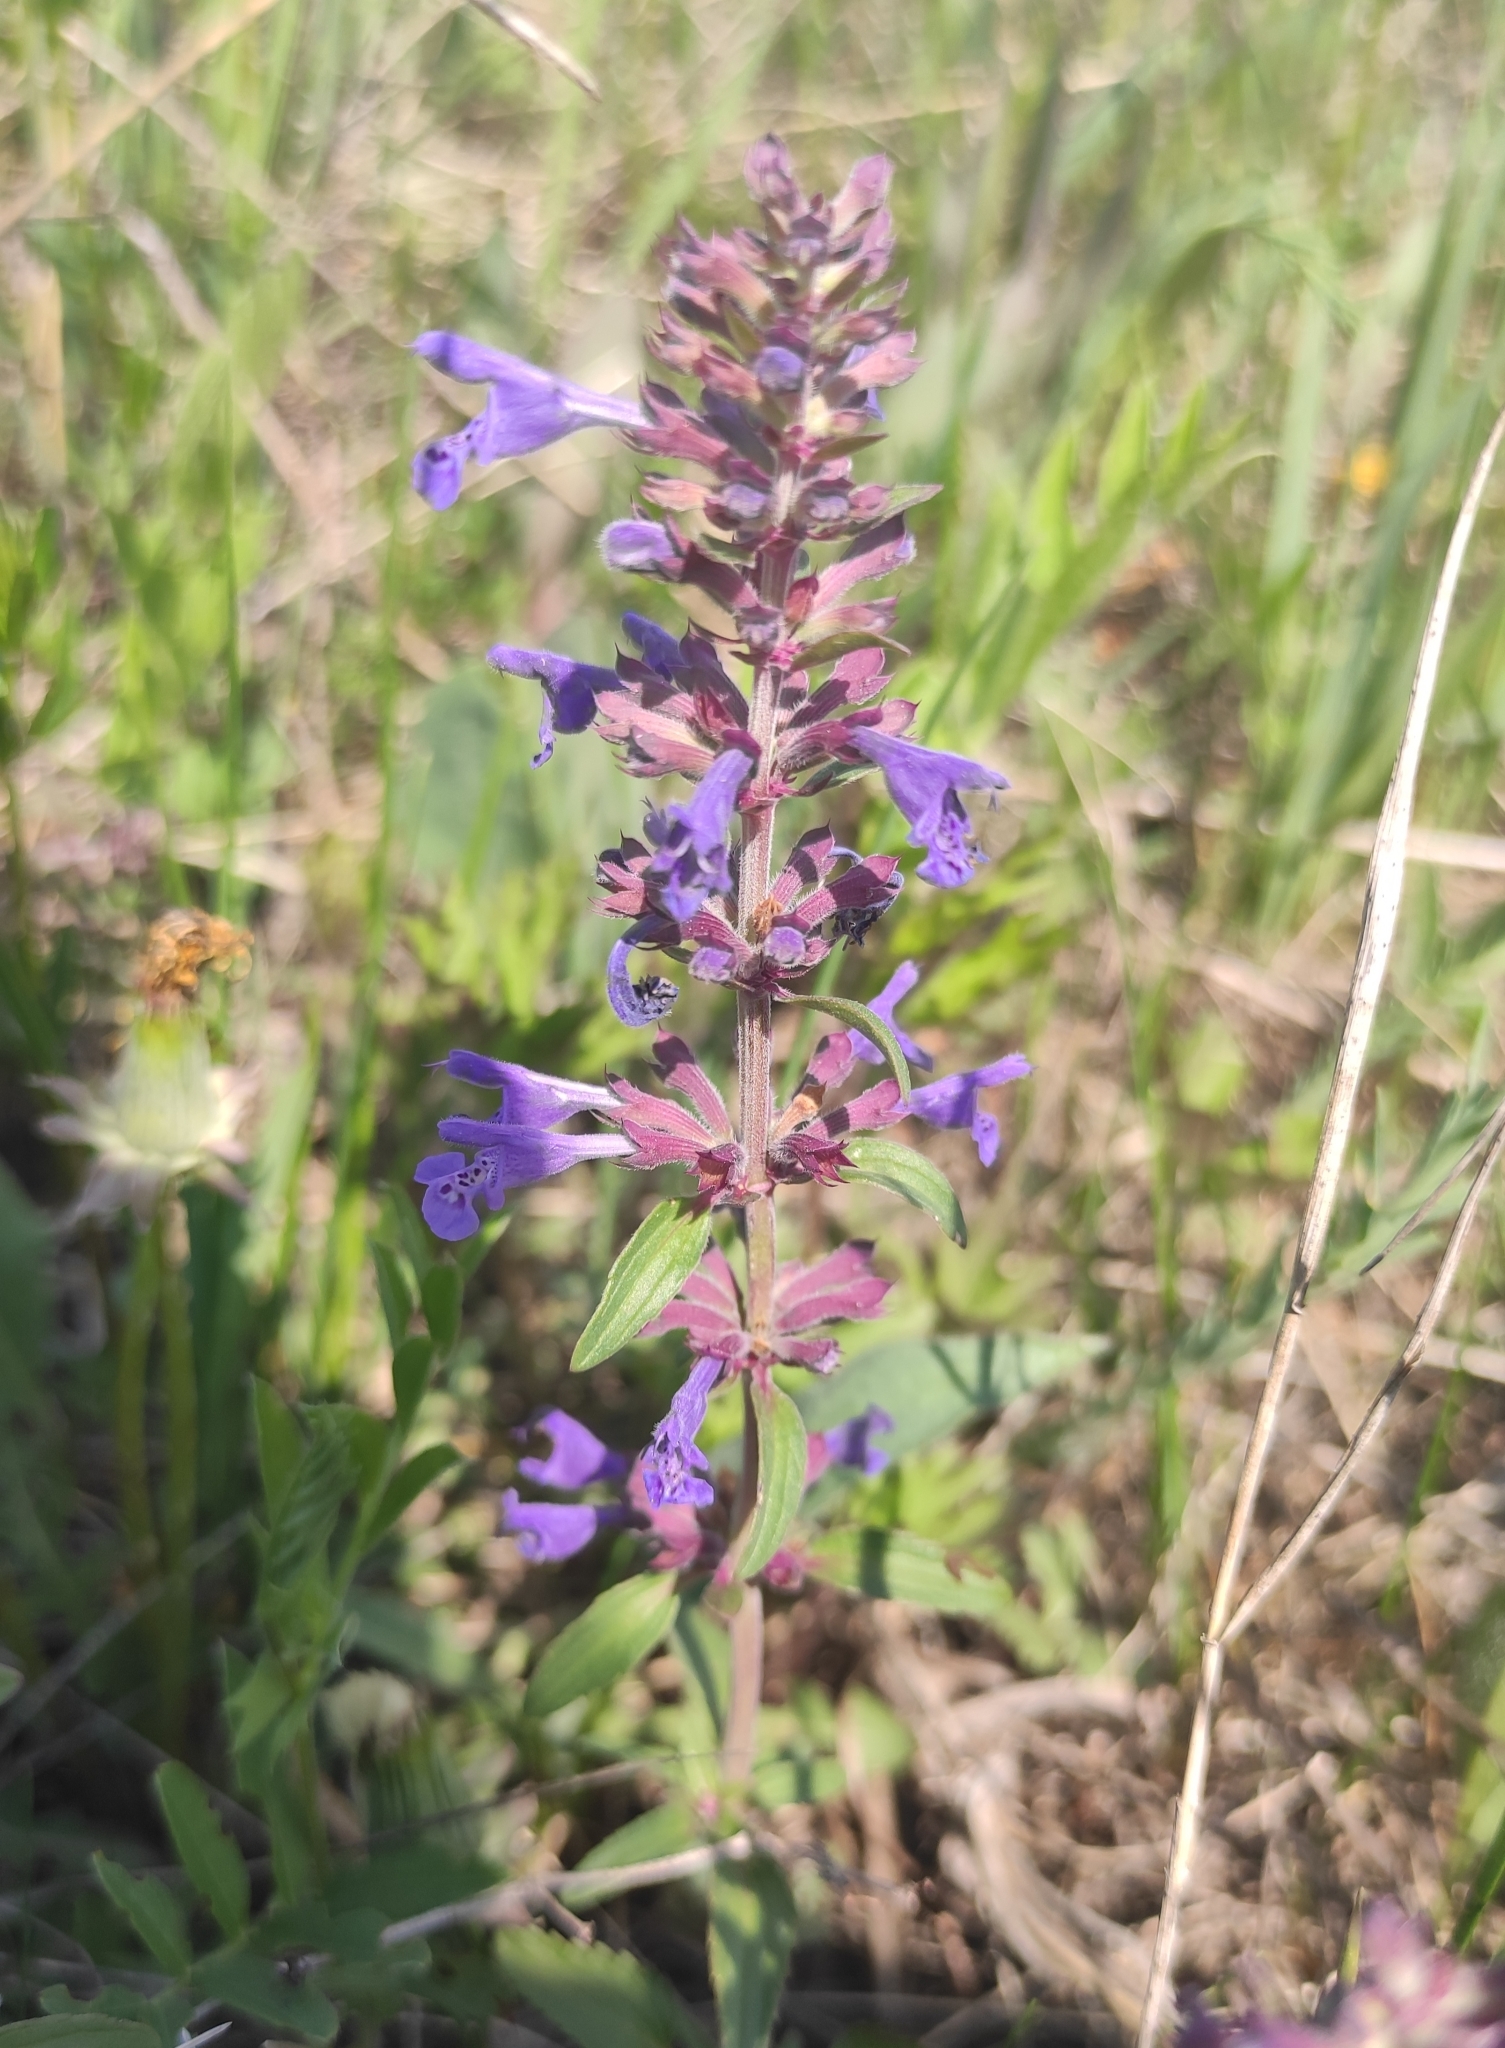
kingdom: Plantae
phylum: Tracheophyta
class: Magnoliopsida
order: Lamiales
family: Lamiaceae
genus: Dracocephalum
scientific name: Dracocephalum nutans
